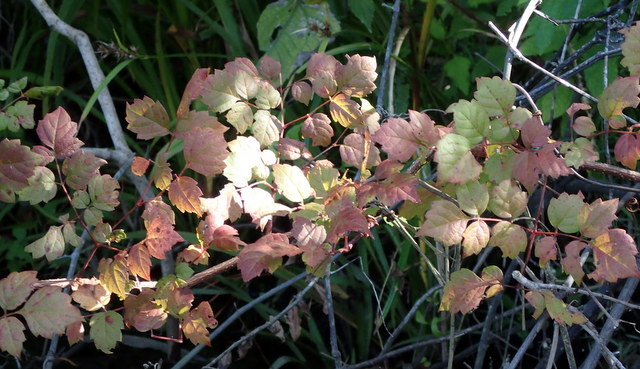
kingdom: Plantae
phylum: Tracheophyta
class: Magnoliopsida
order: Vitales
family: Vitaceae
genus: Nekemias
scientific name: Nekemias arborea
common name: Peppervine
